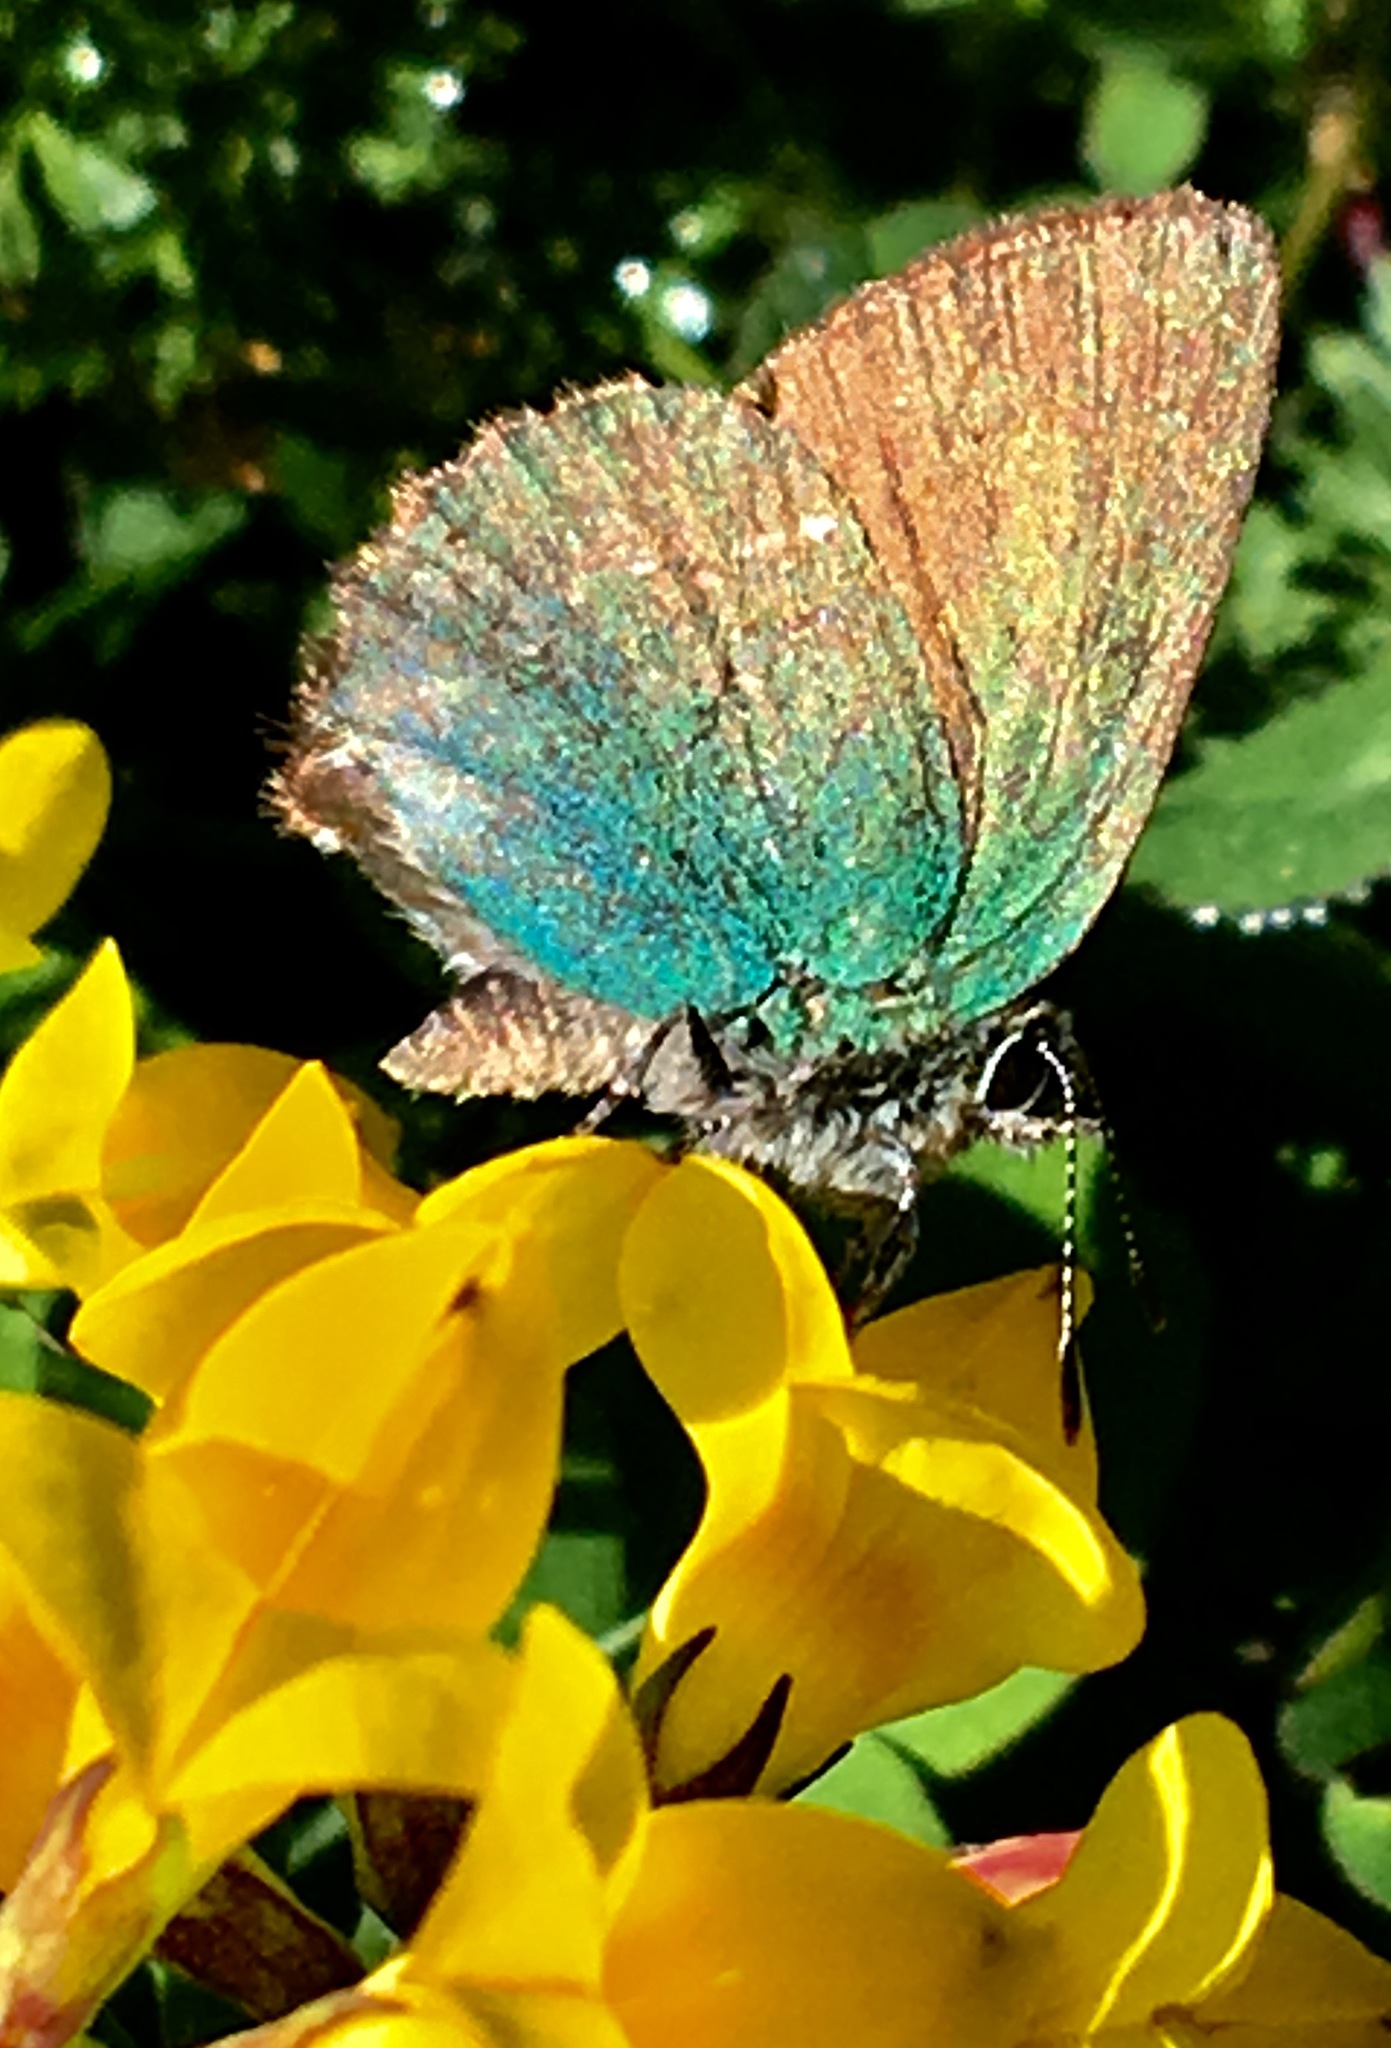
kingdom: Animalia
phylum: Arthropoda
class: Insecta
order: Lepidoptera
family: Lycaenidae
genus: Callophrys
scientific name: Callophrys rubi
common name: Green hairstreak
